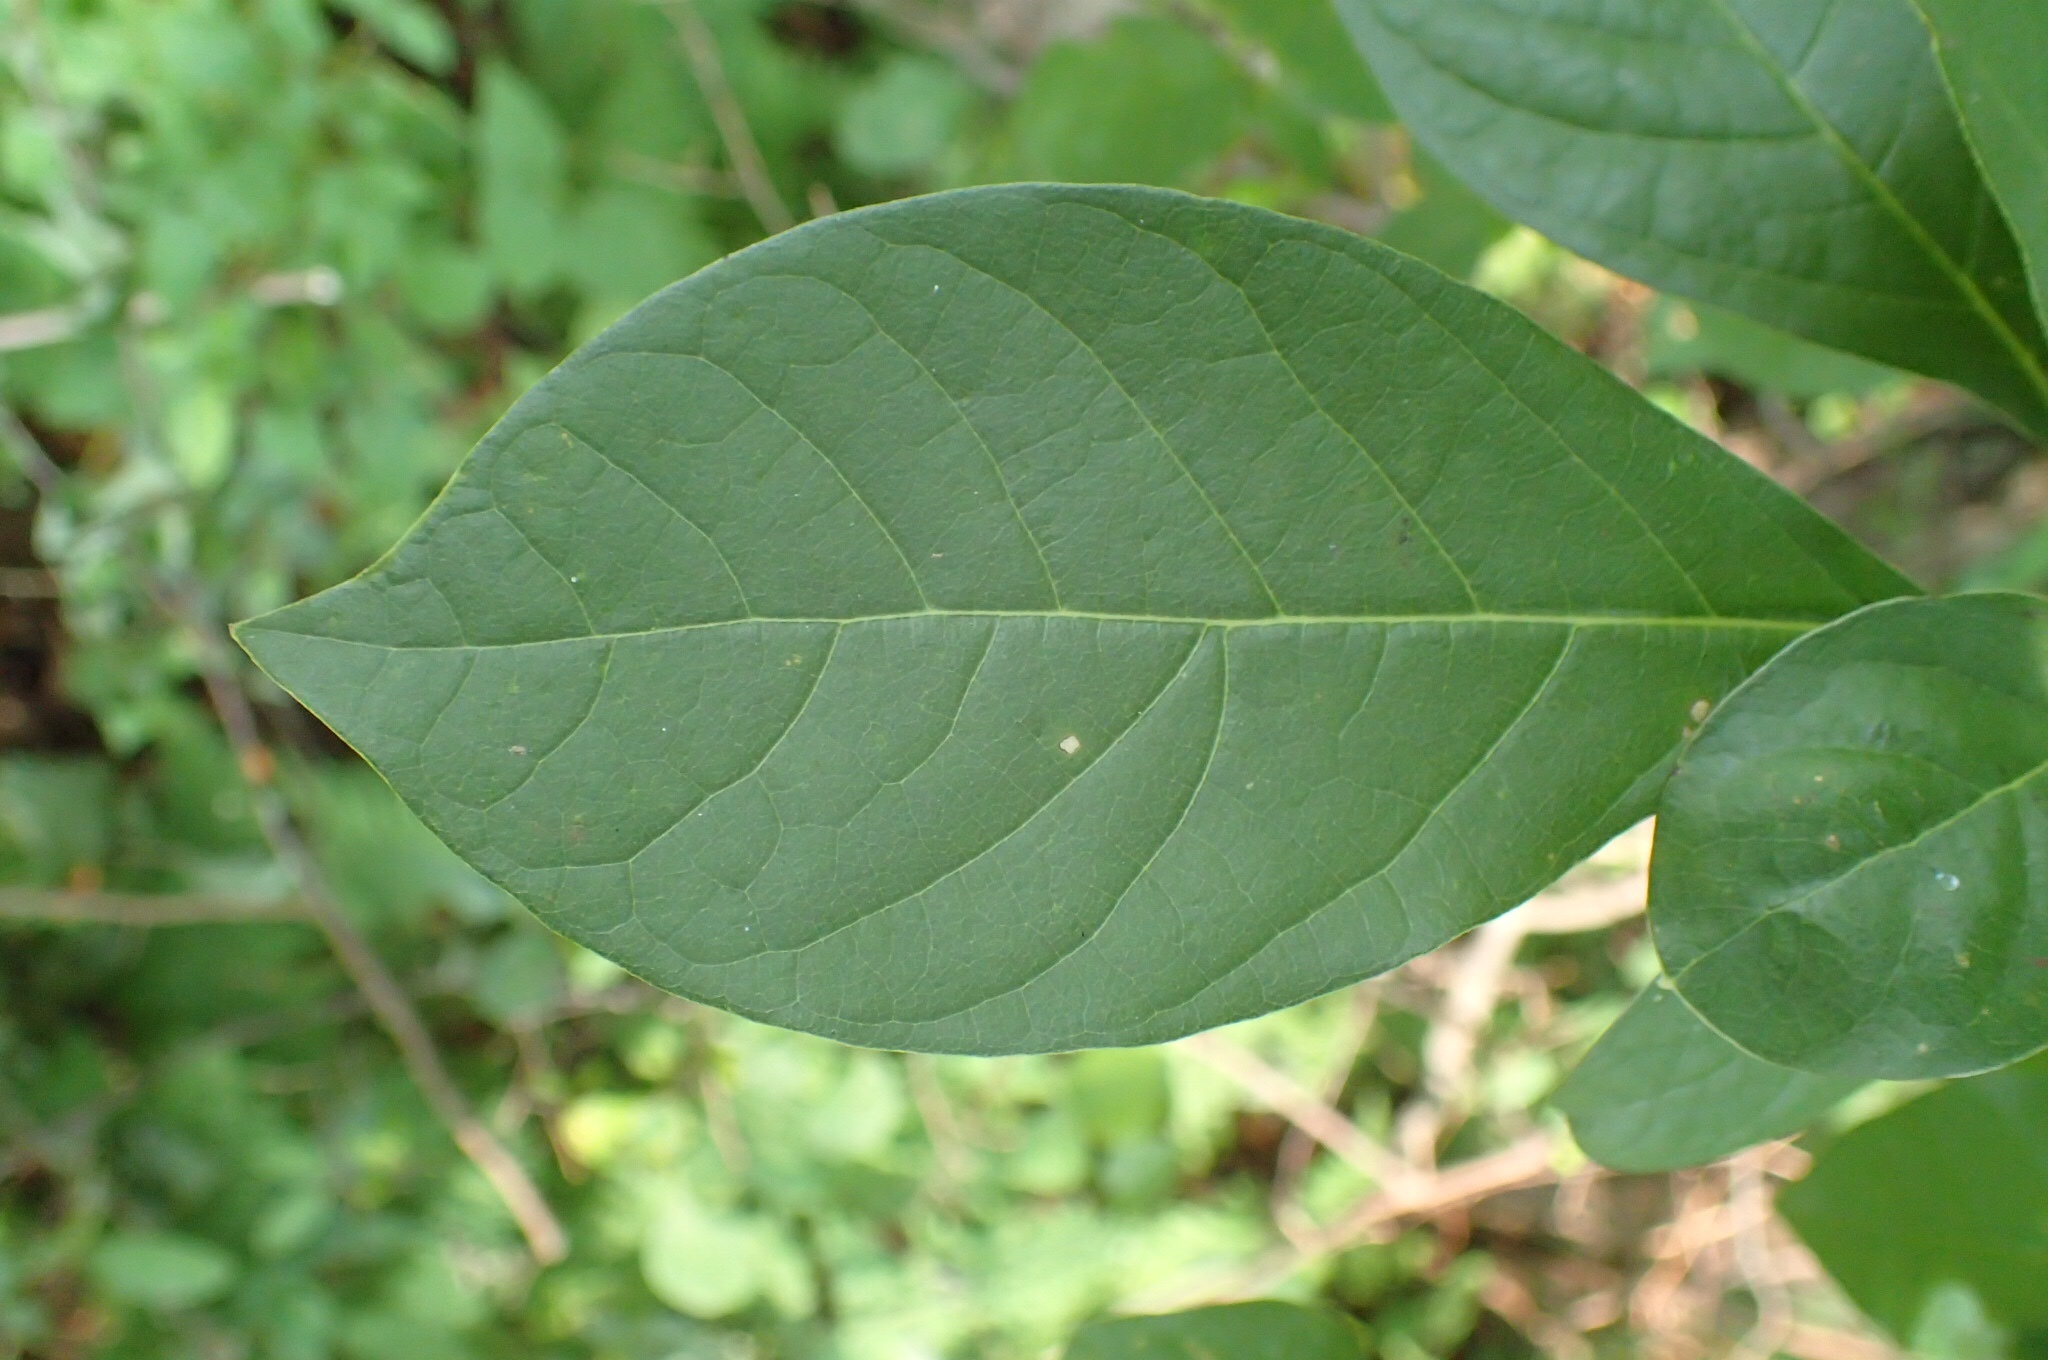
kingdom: Plantae
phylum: Tracheophyta
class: Magnoliopsida
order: Laurales
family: Lauraceae
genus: Lindera
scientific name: Lindera benzoin
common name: Spicebush
